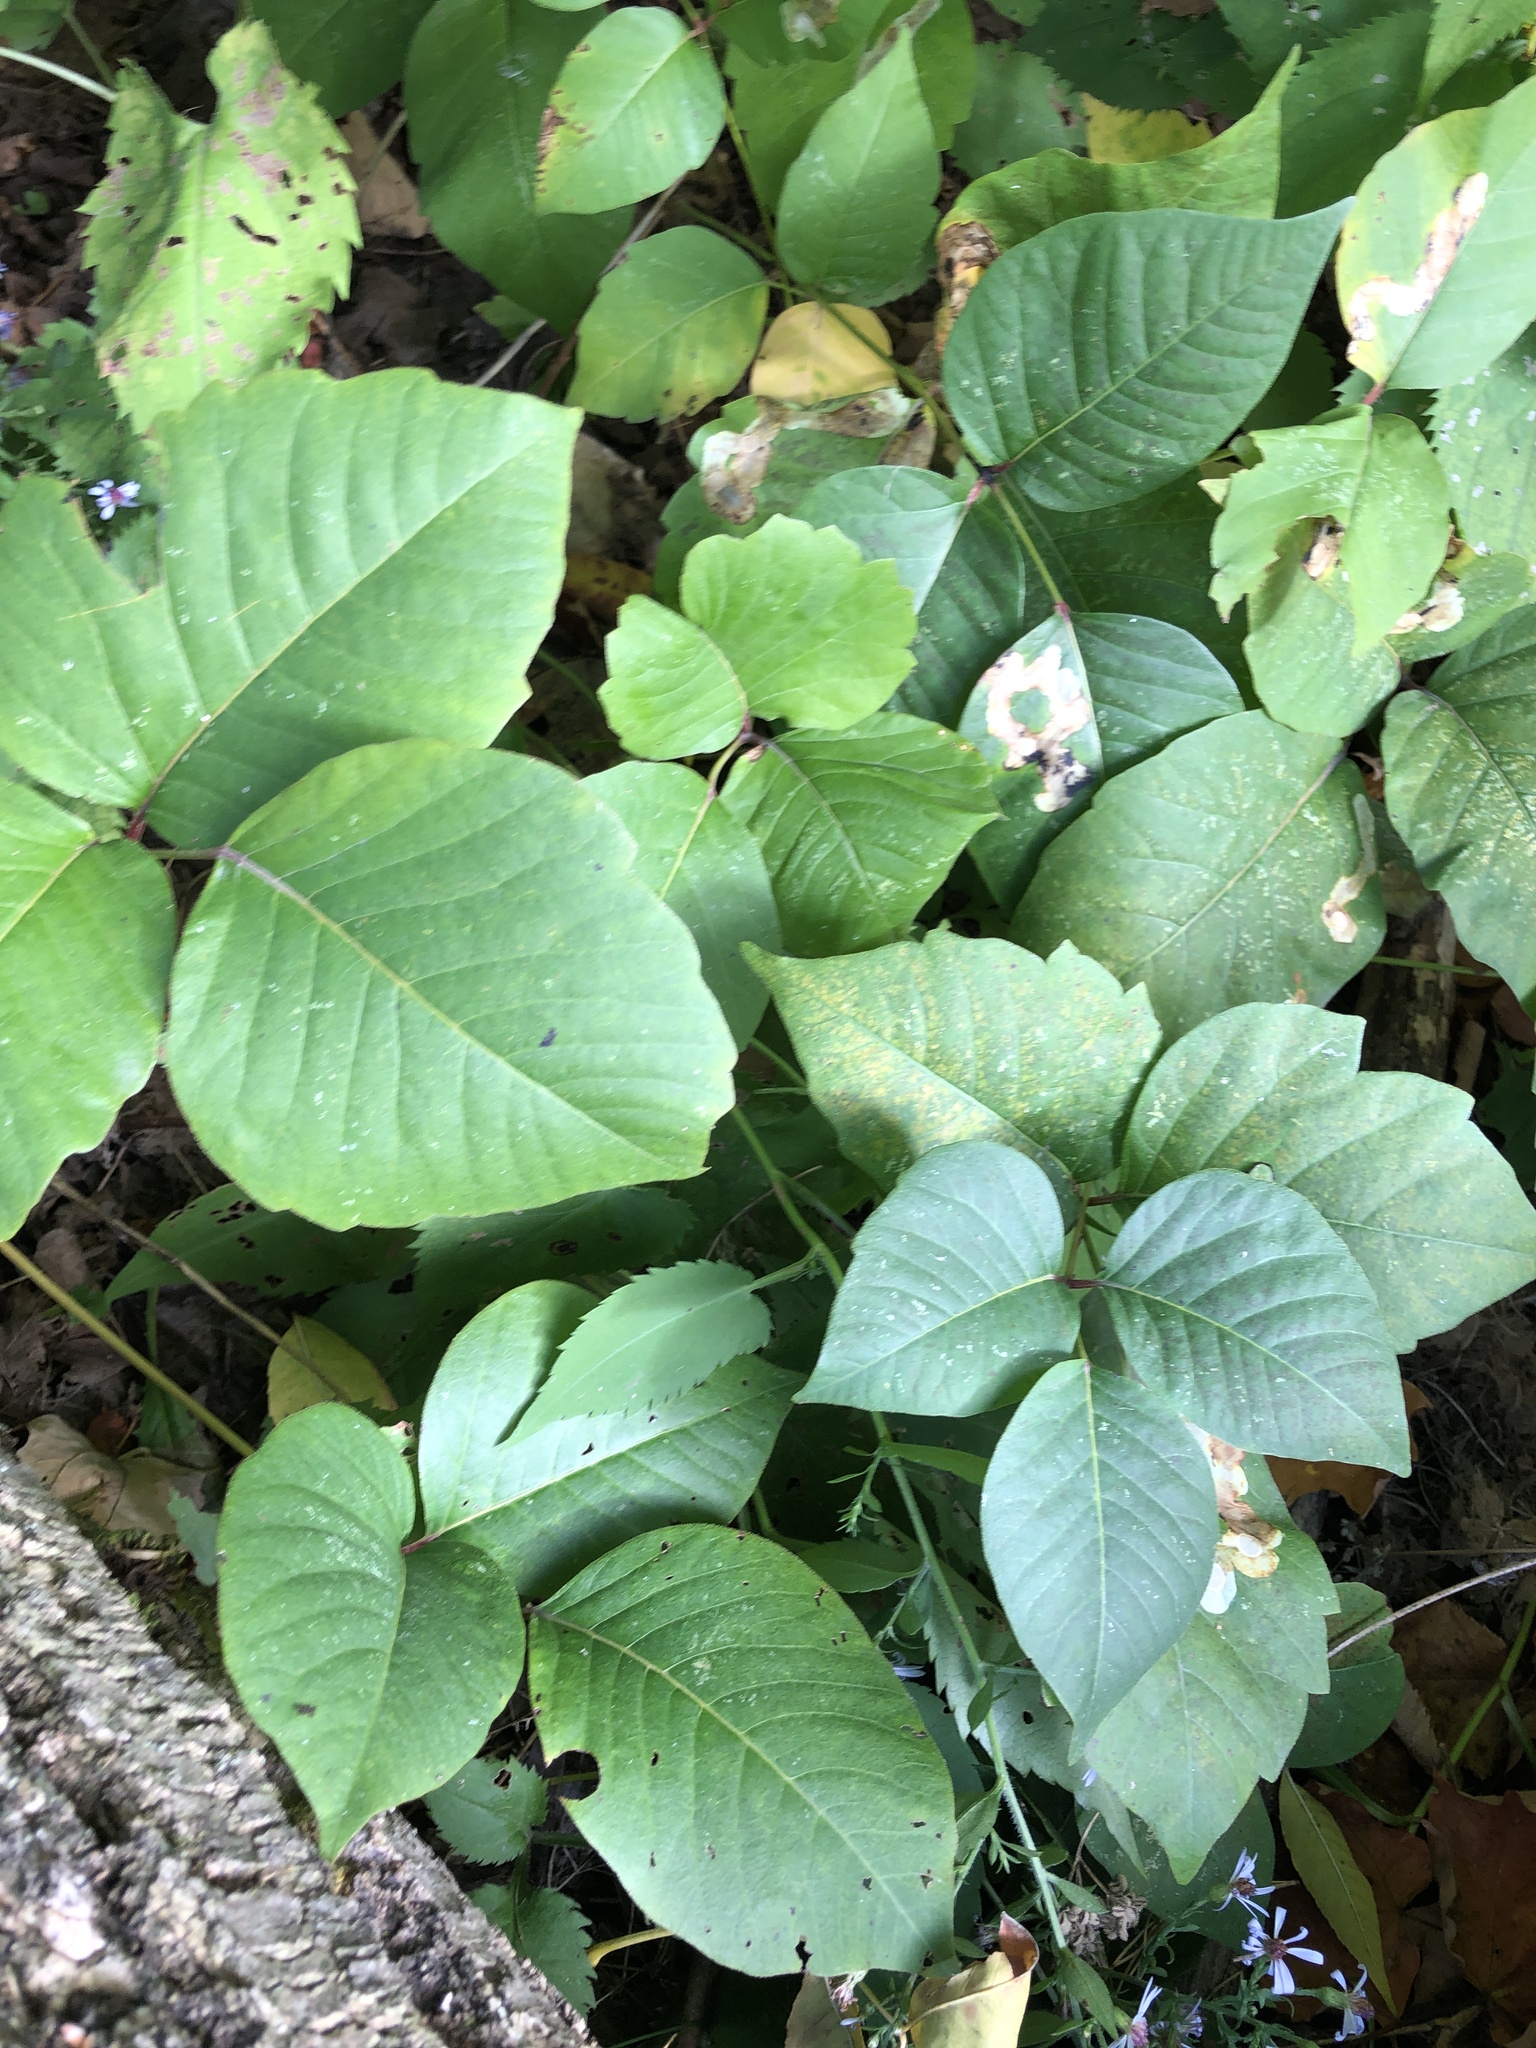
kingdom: Plantae
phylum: Tracheophyta
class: Magnoliopsida
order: Sapindales
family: Anacardiaceae
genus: Toxicodendron
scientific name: Toxicodendron radicans
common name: Poison ivy
